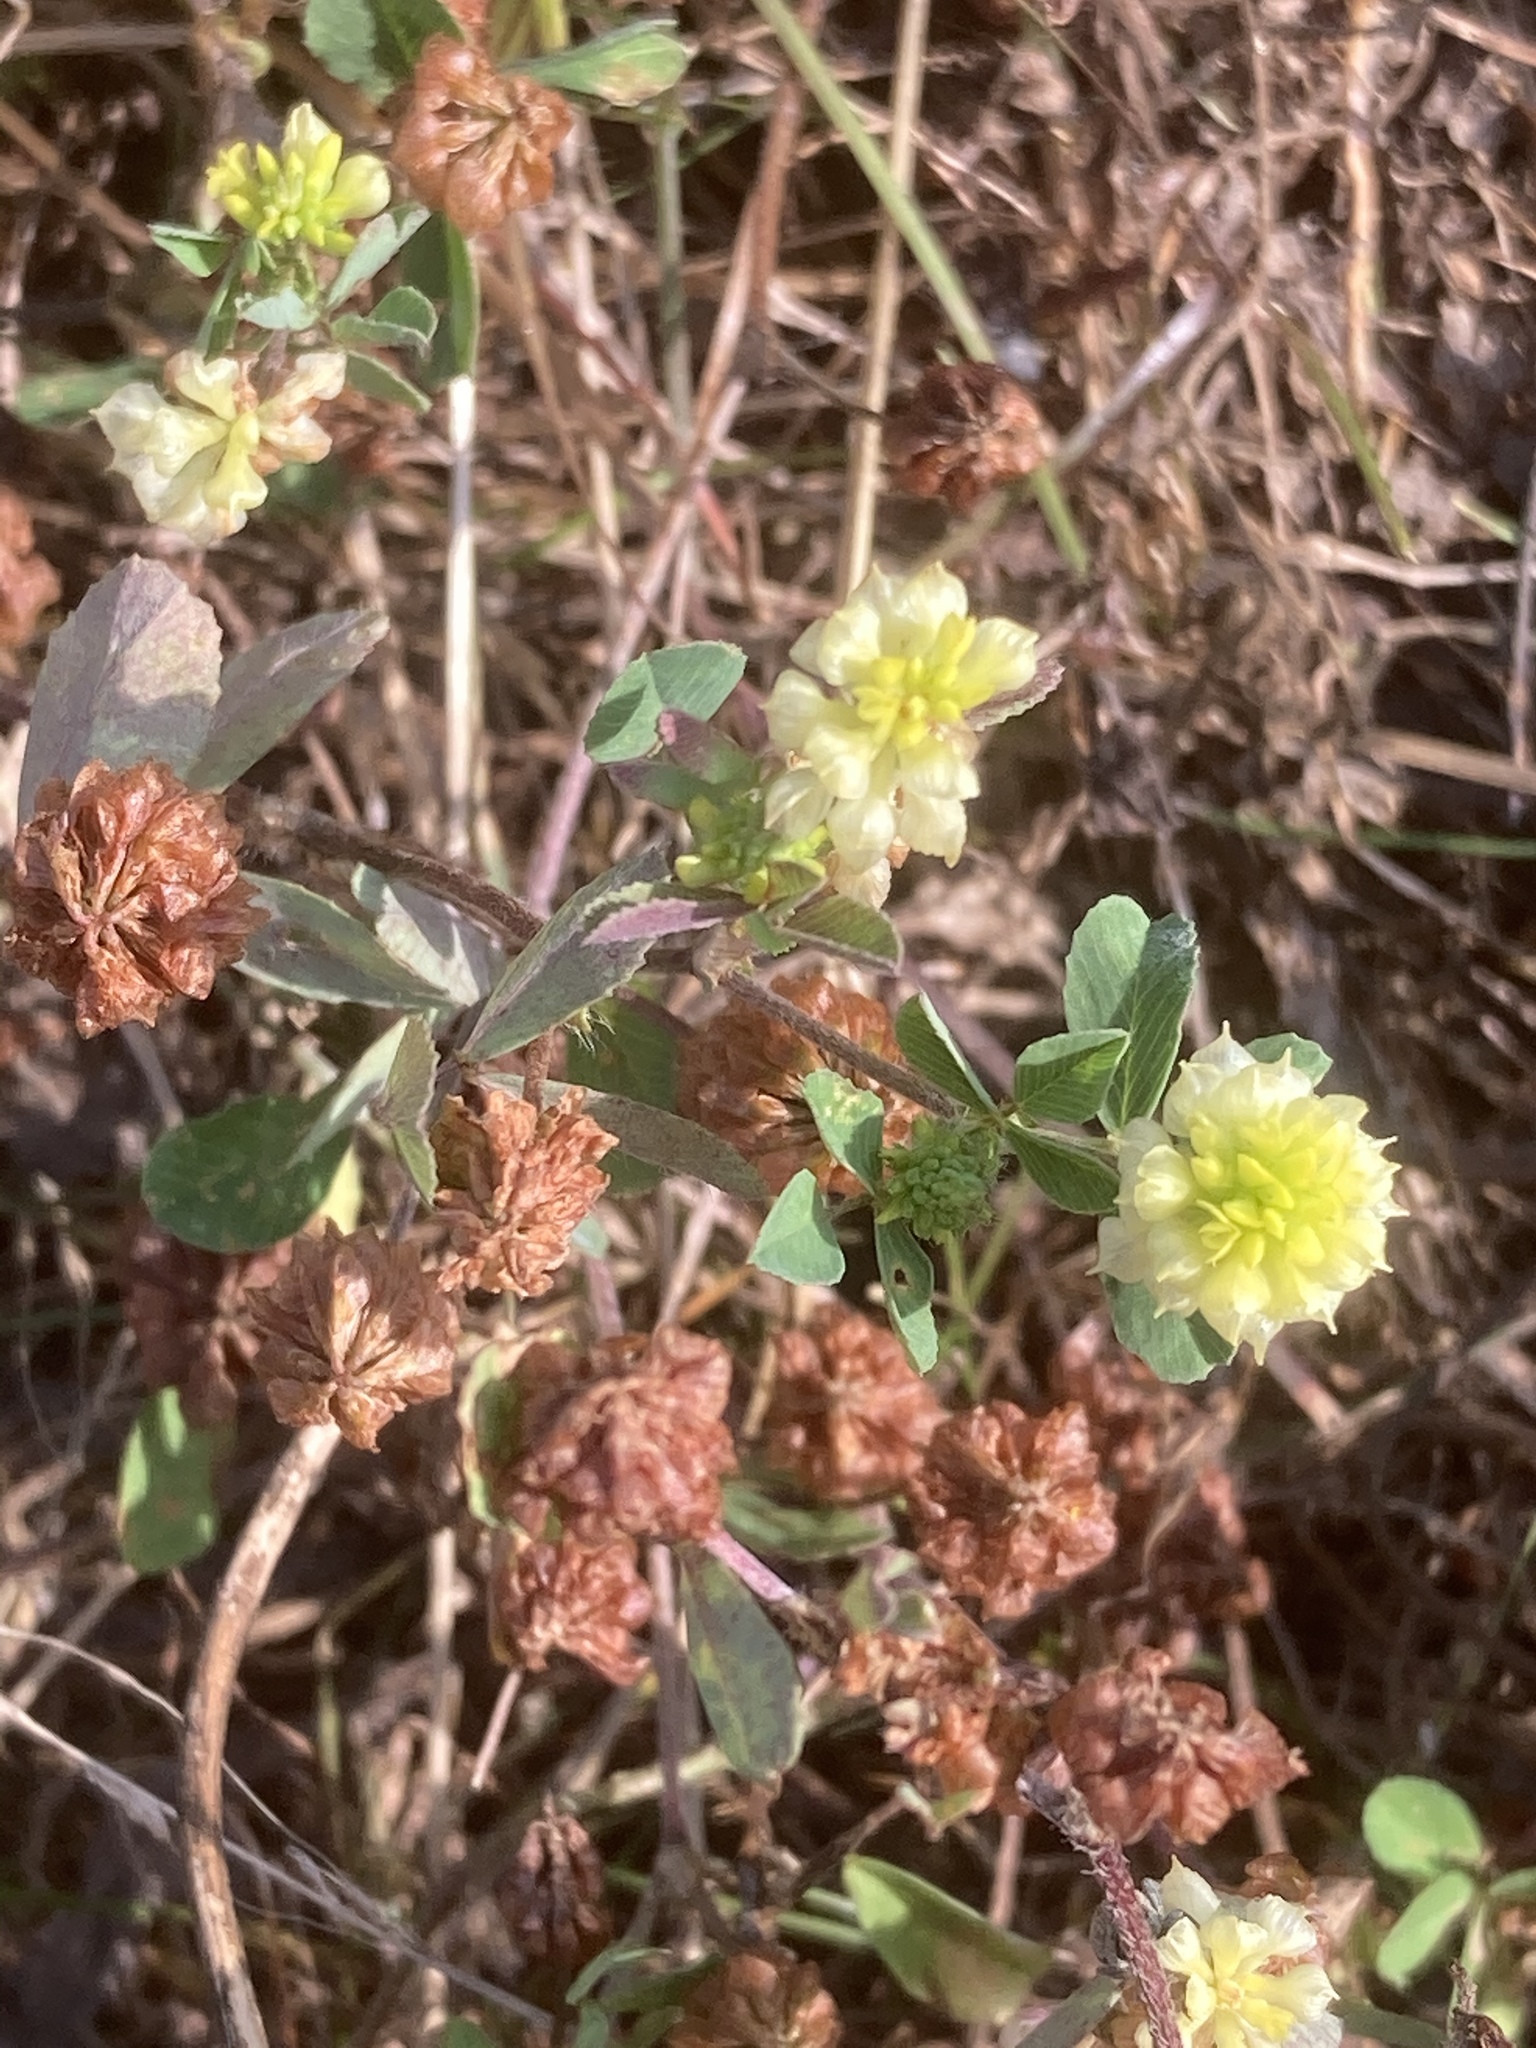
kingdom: Plantae
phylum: Tracheophyta
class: Magnoliopsida
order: Fabales
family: Fabaceae
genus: Trifolium
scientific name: Trifolium campestre
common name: Field clover
